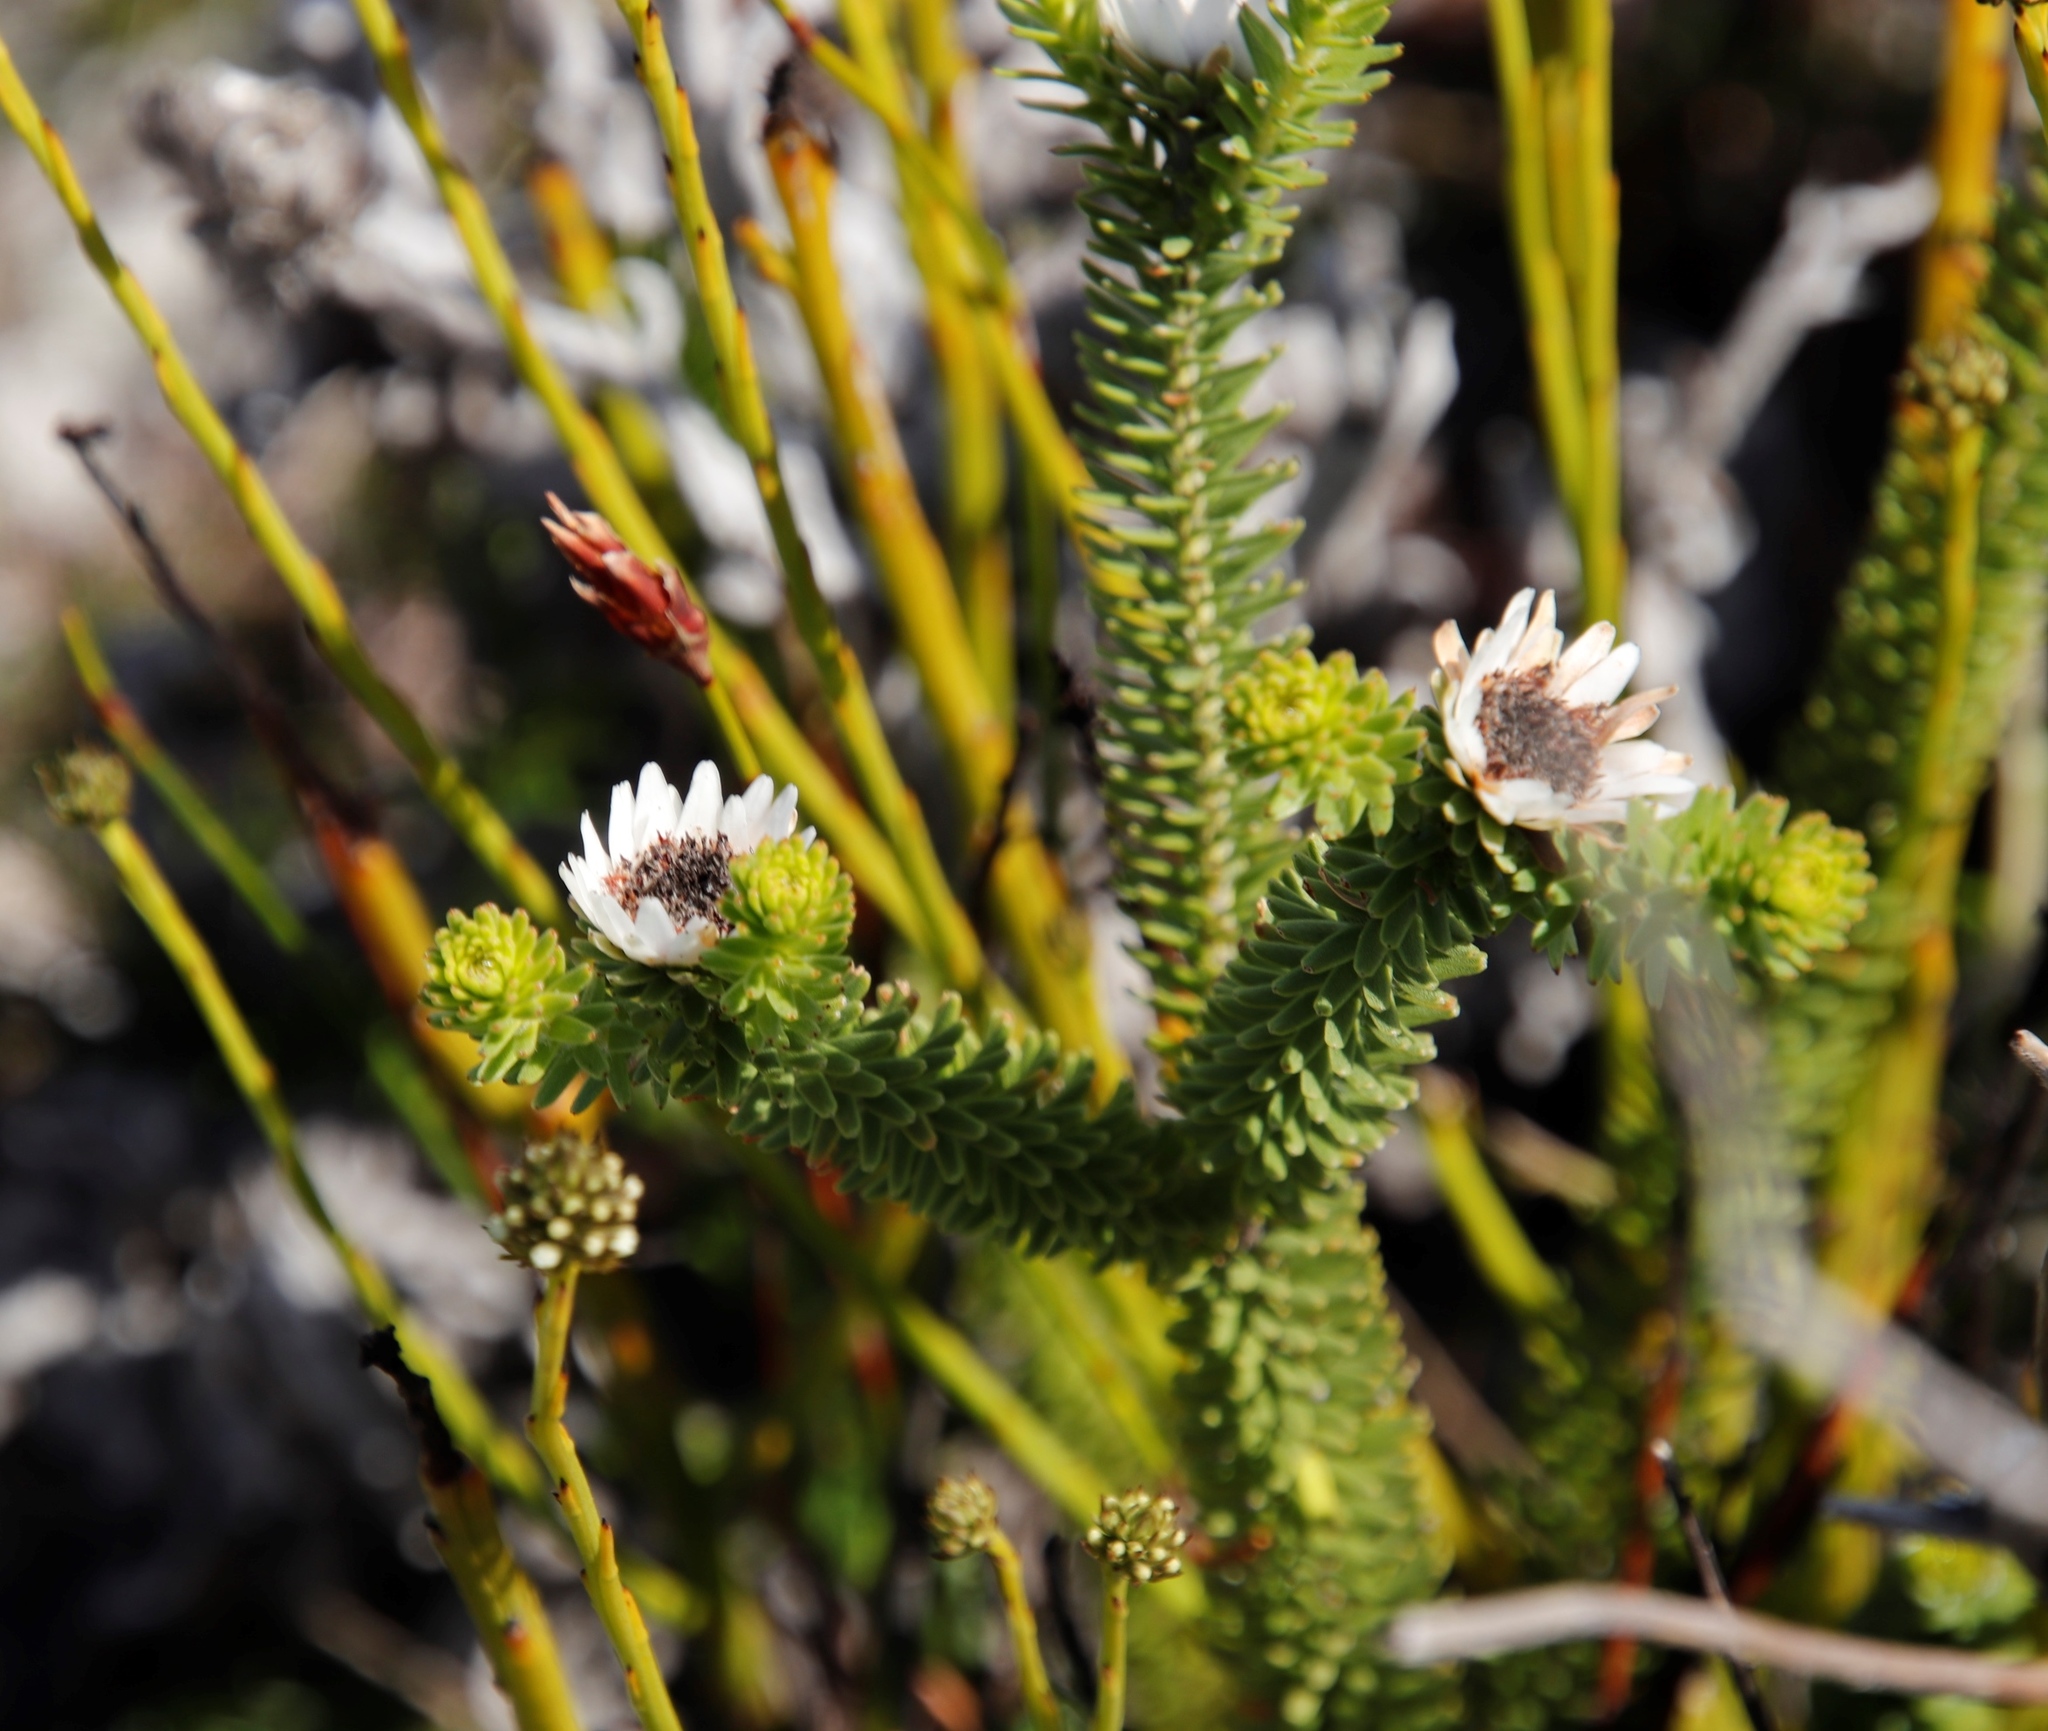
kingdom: Plantae
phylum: Tracheophyta
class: Magnoliopsida
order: Bruniales
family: Bruniaceae
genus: Staavia
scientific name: Staavia dodii
